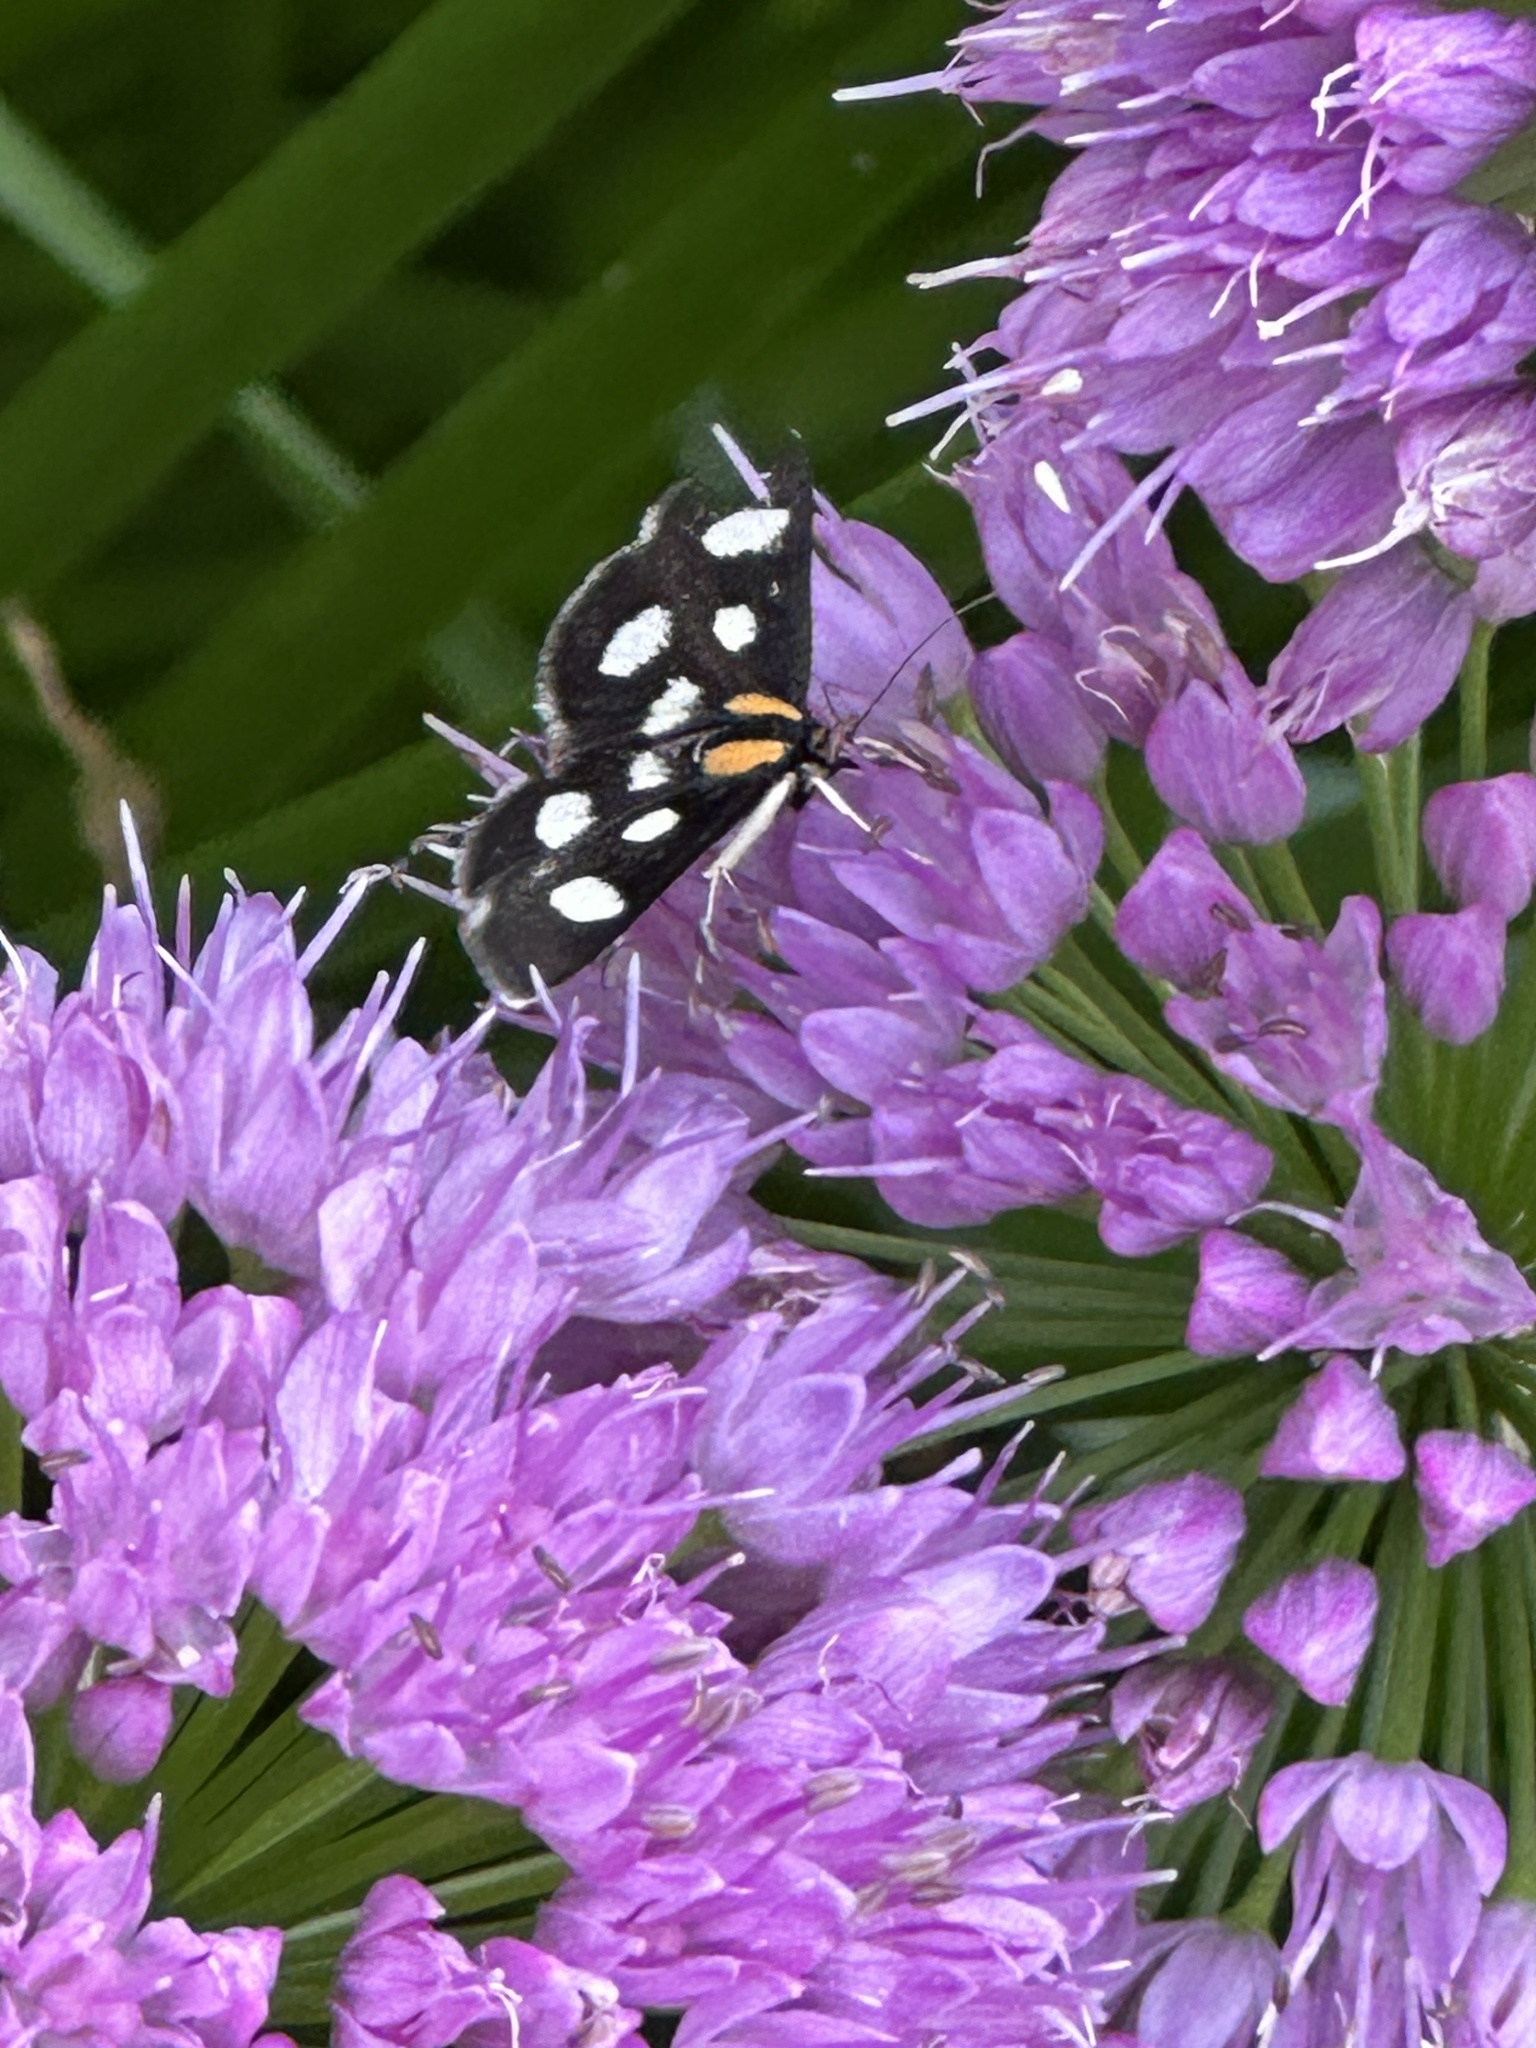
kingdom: Animalia
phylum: Arthropoda
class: Insecta
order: Lepidoptera
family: Crambidae
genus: Anania
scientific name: Anania funebris
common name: White-spotted sable moth
